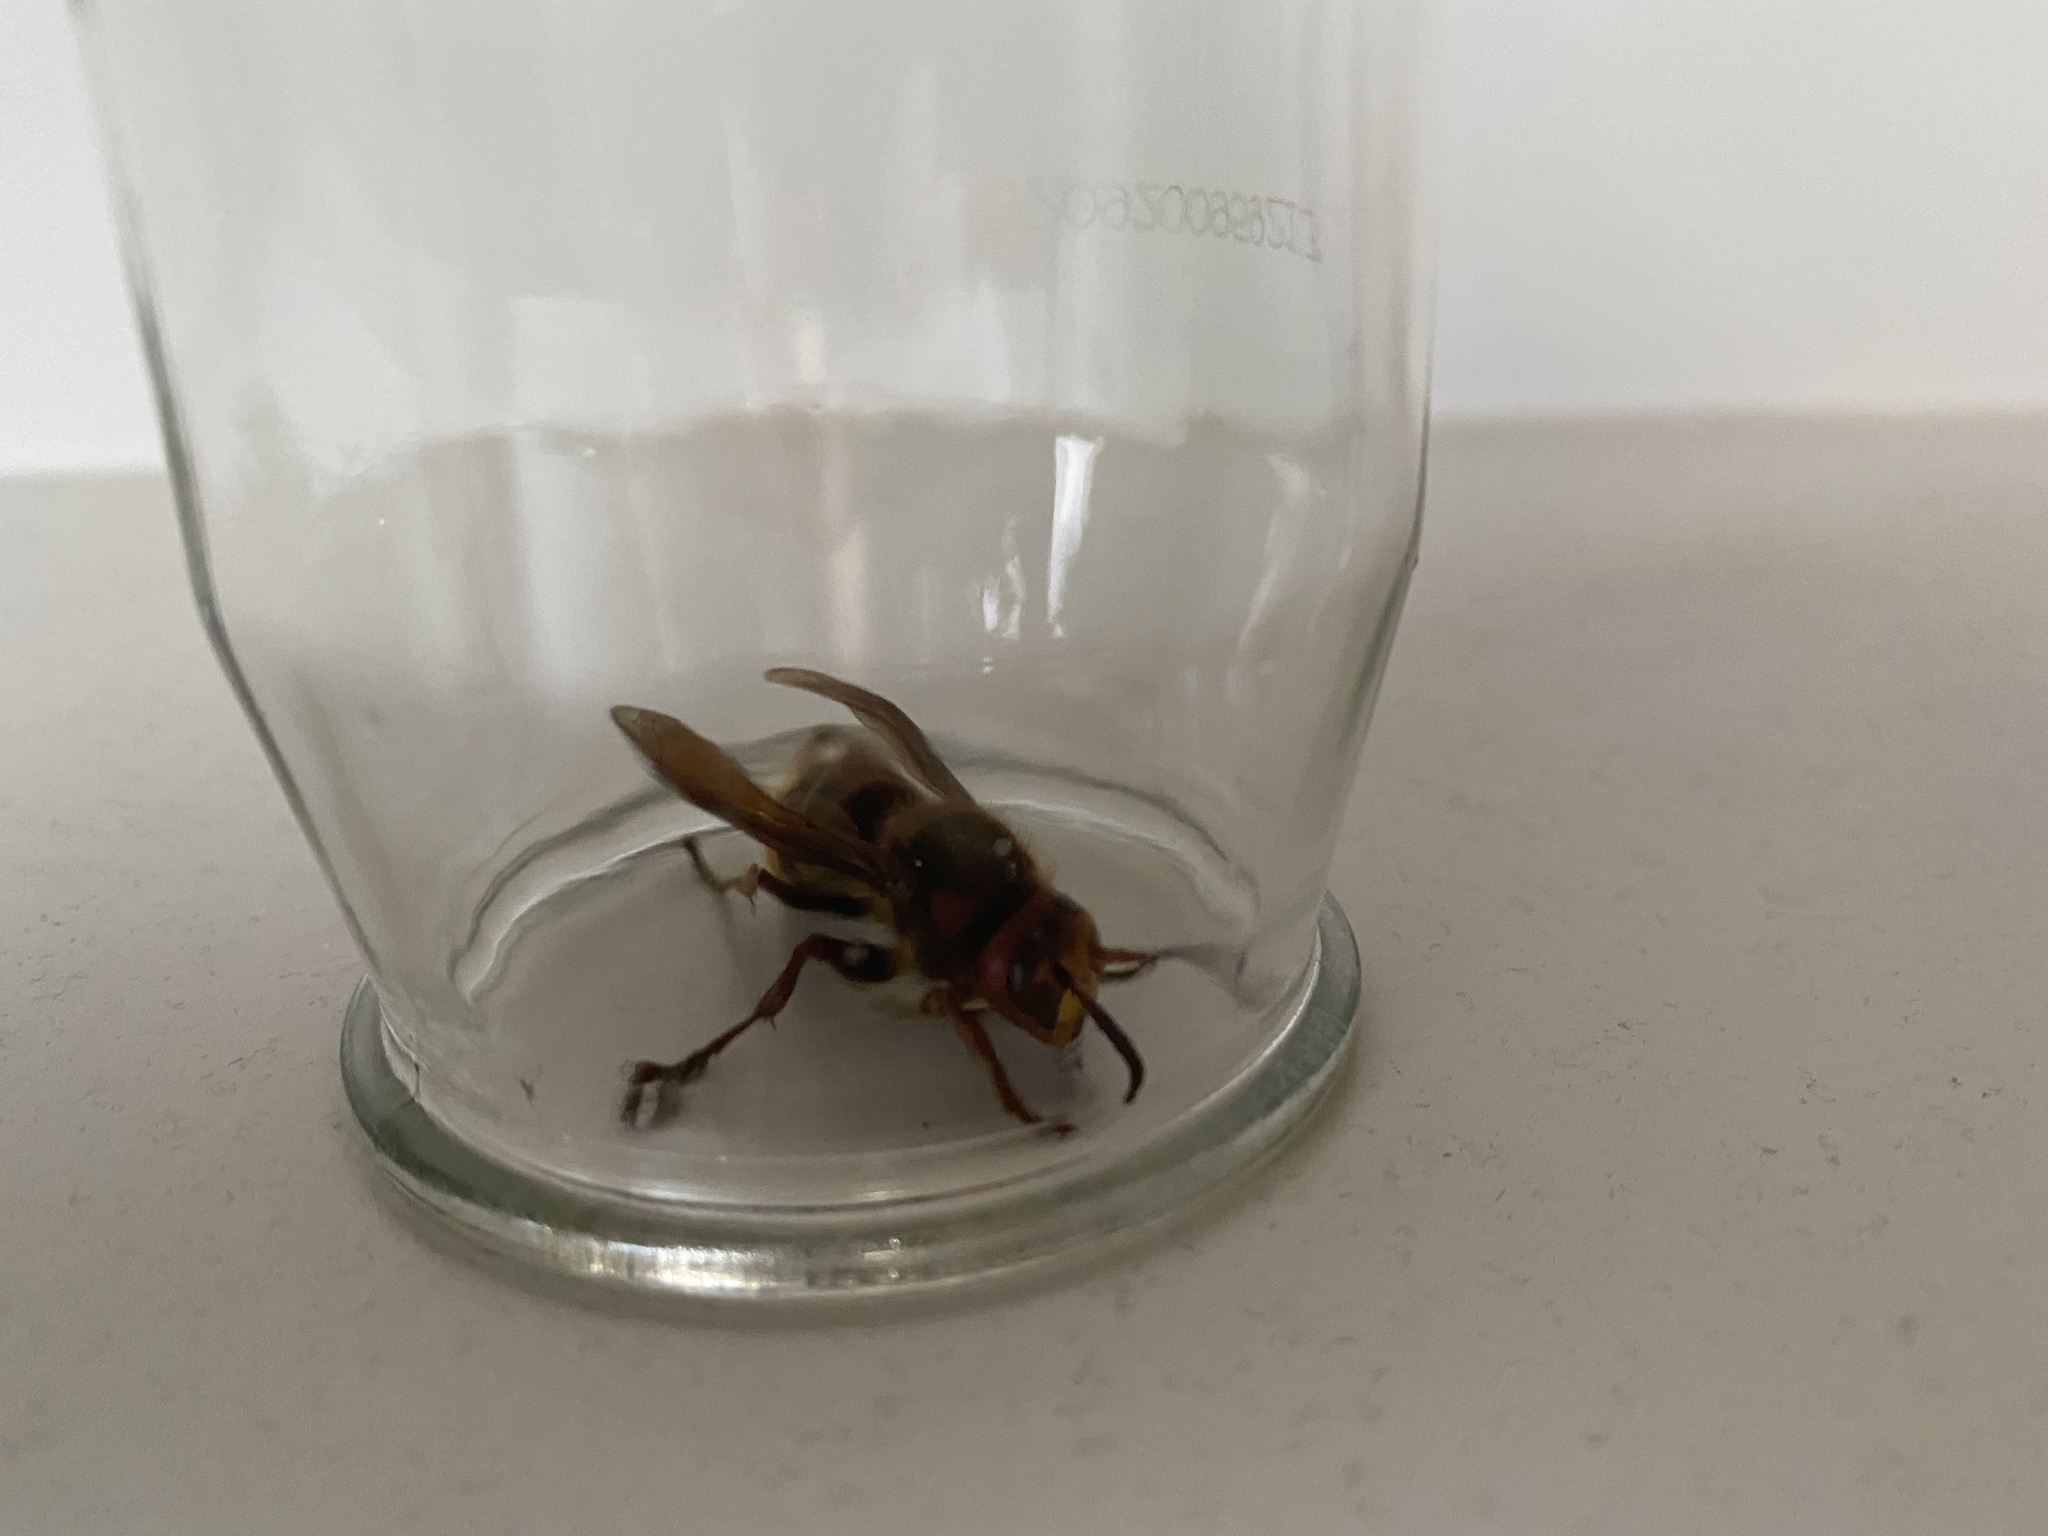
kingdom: Animalia
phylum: Arthropoda
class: Insecta
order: Hymenoptera
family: Vespidae
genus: Vespa
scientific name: Vespa crabro
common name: Hornet
